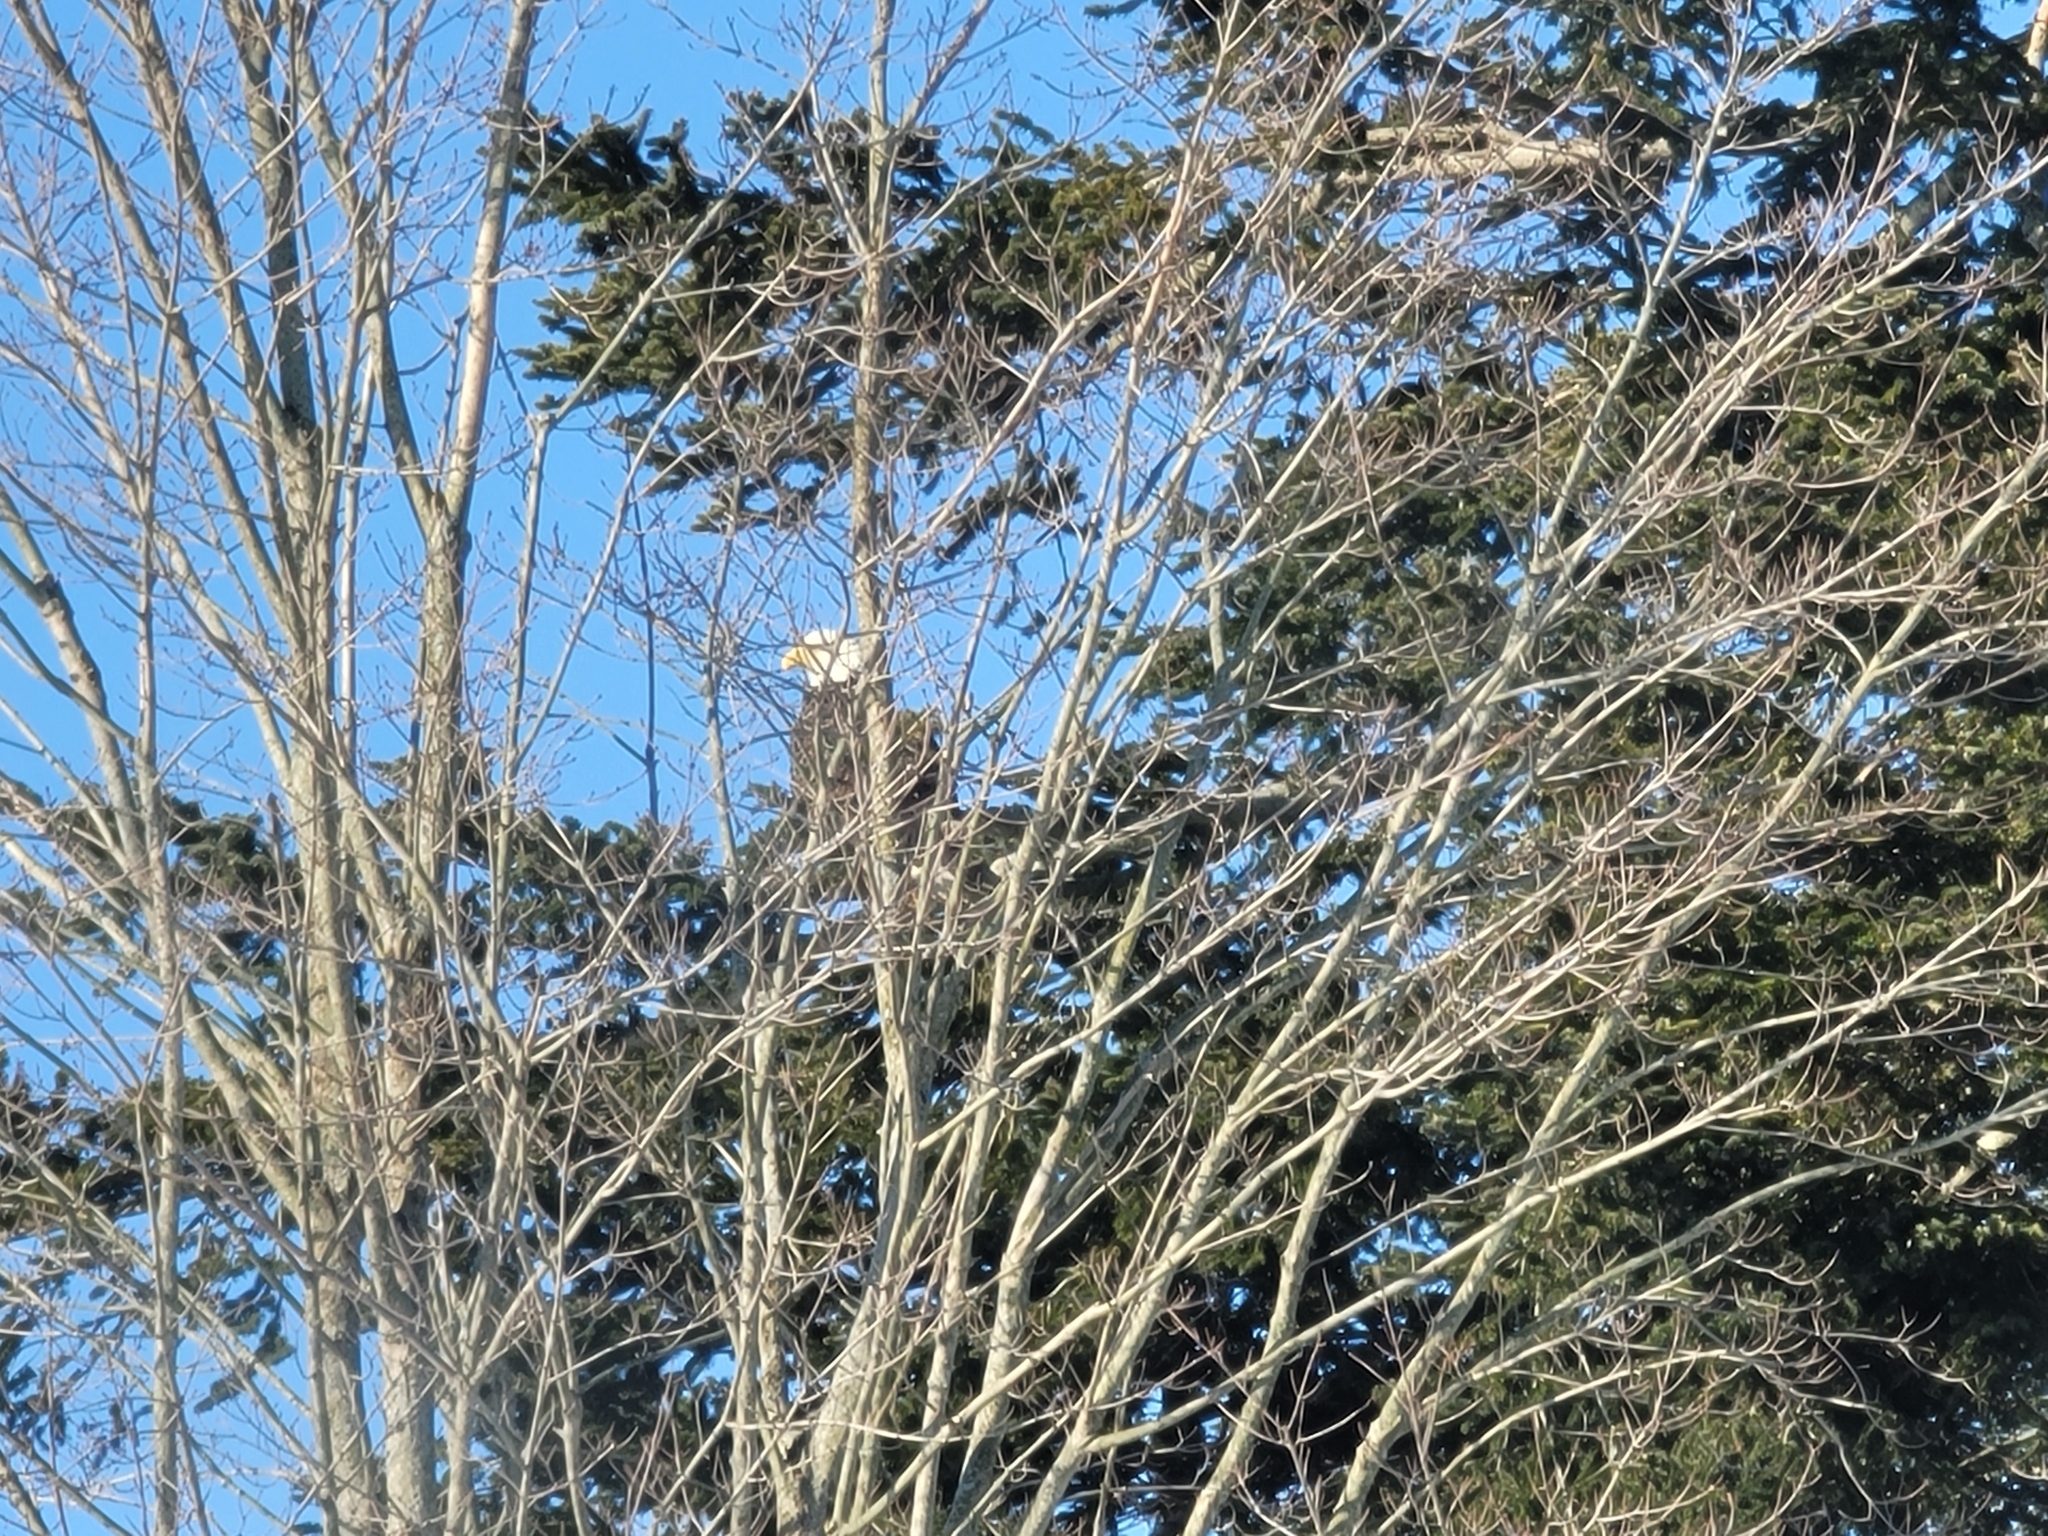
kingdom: Animalia
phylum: Chordata
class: Aves
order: Accipitriformes
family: Accipitridae
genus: Haliaeetus
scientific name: Haliaeetus leucocephalus
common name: Bald eagle
